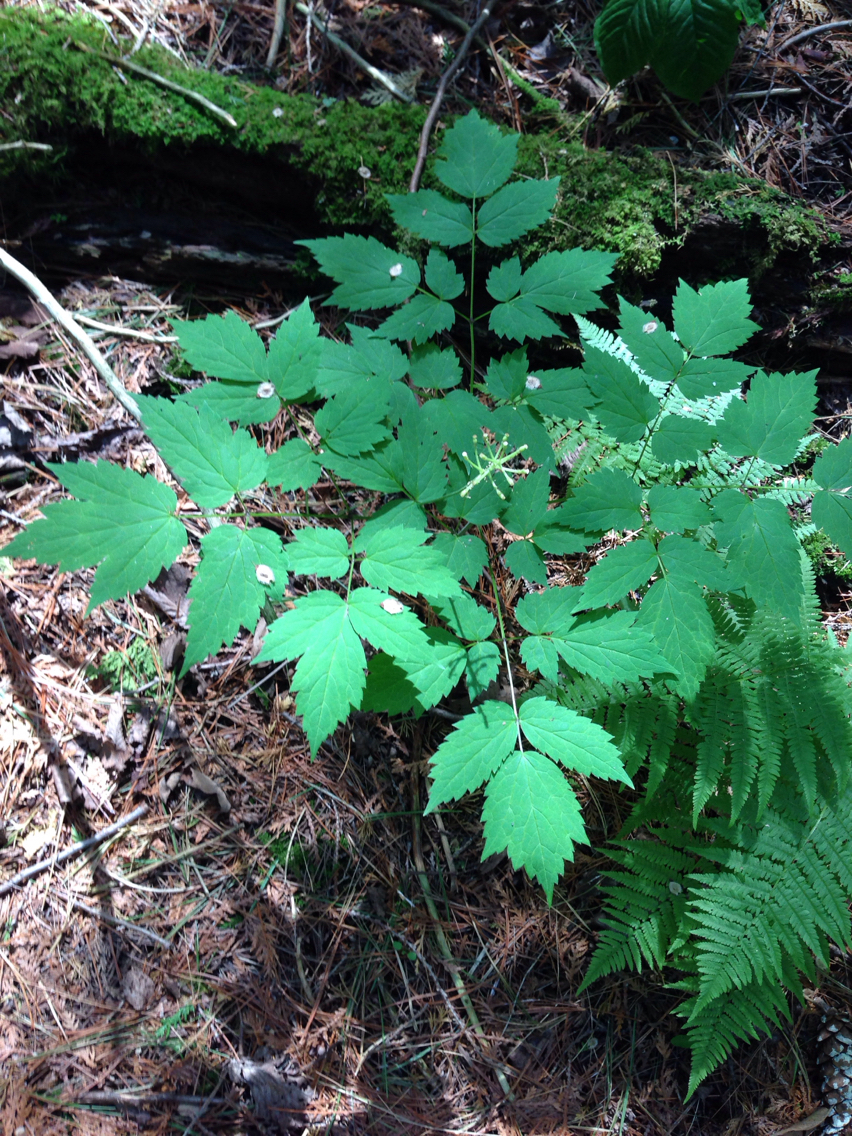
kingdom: Plantae
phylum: Tracheophyta
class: Magnoliopsida
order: Ranunculales
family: Ranunculaceae
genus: Actaea
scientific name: Actaea
